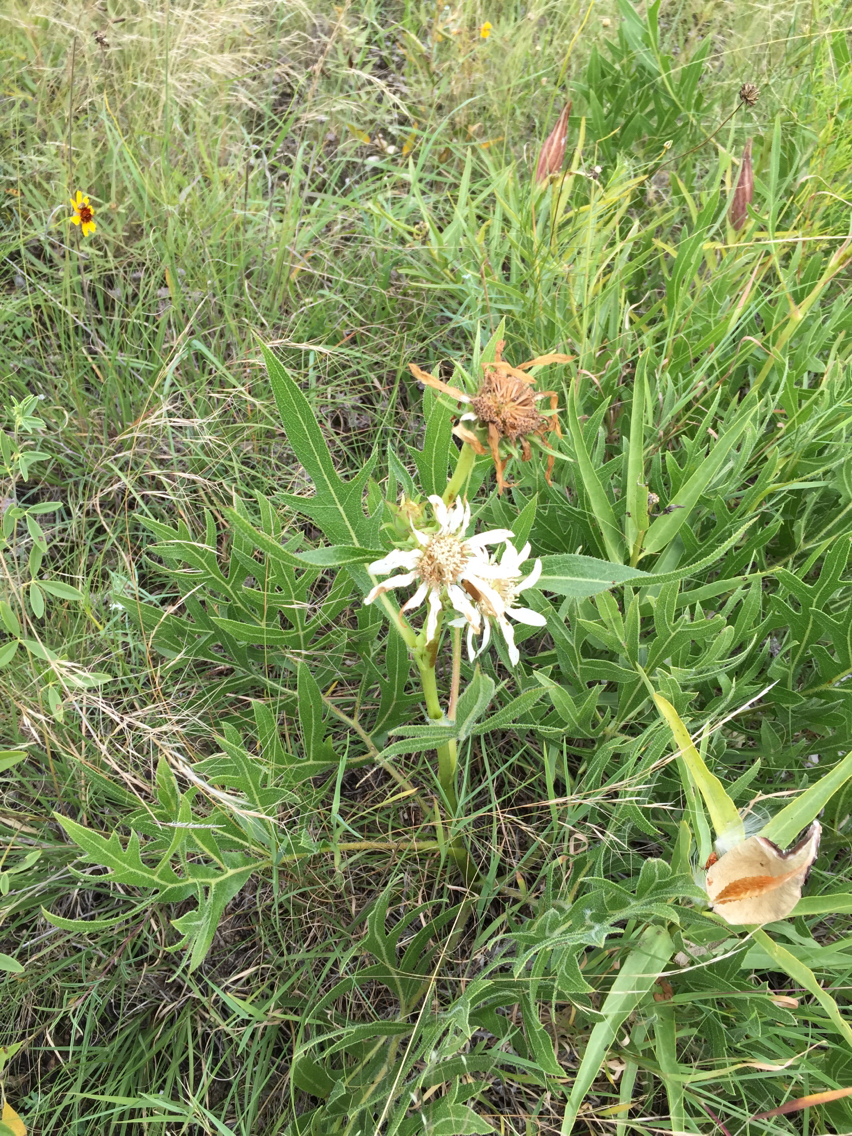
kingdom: Plantae
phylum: Tracheophyta
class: Magnoliopsida
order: Asterales
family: Asteraceae
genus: Silphium
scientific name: Silphium albiflorum
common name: White rosinweed
